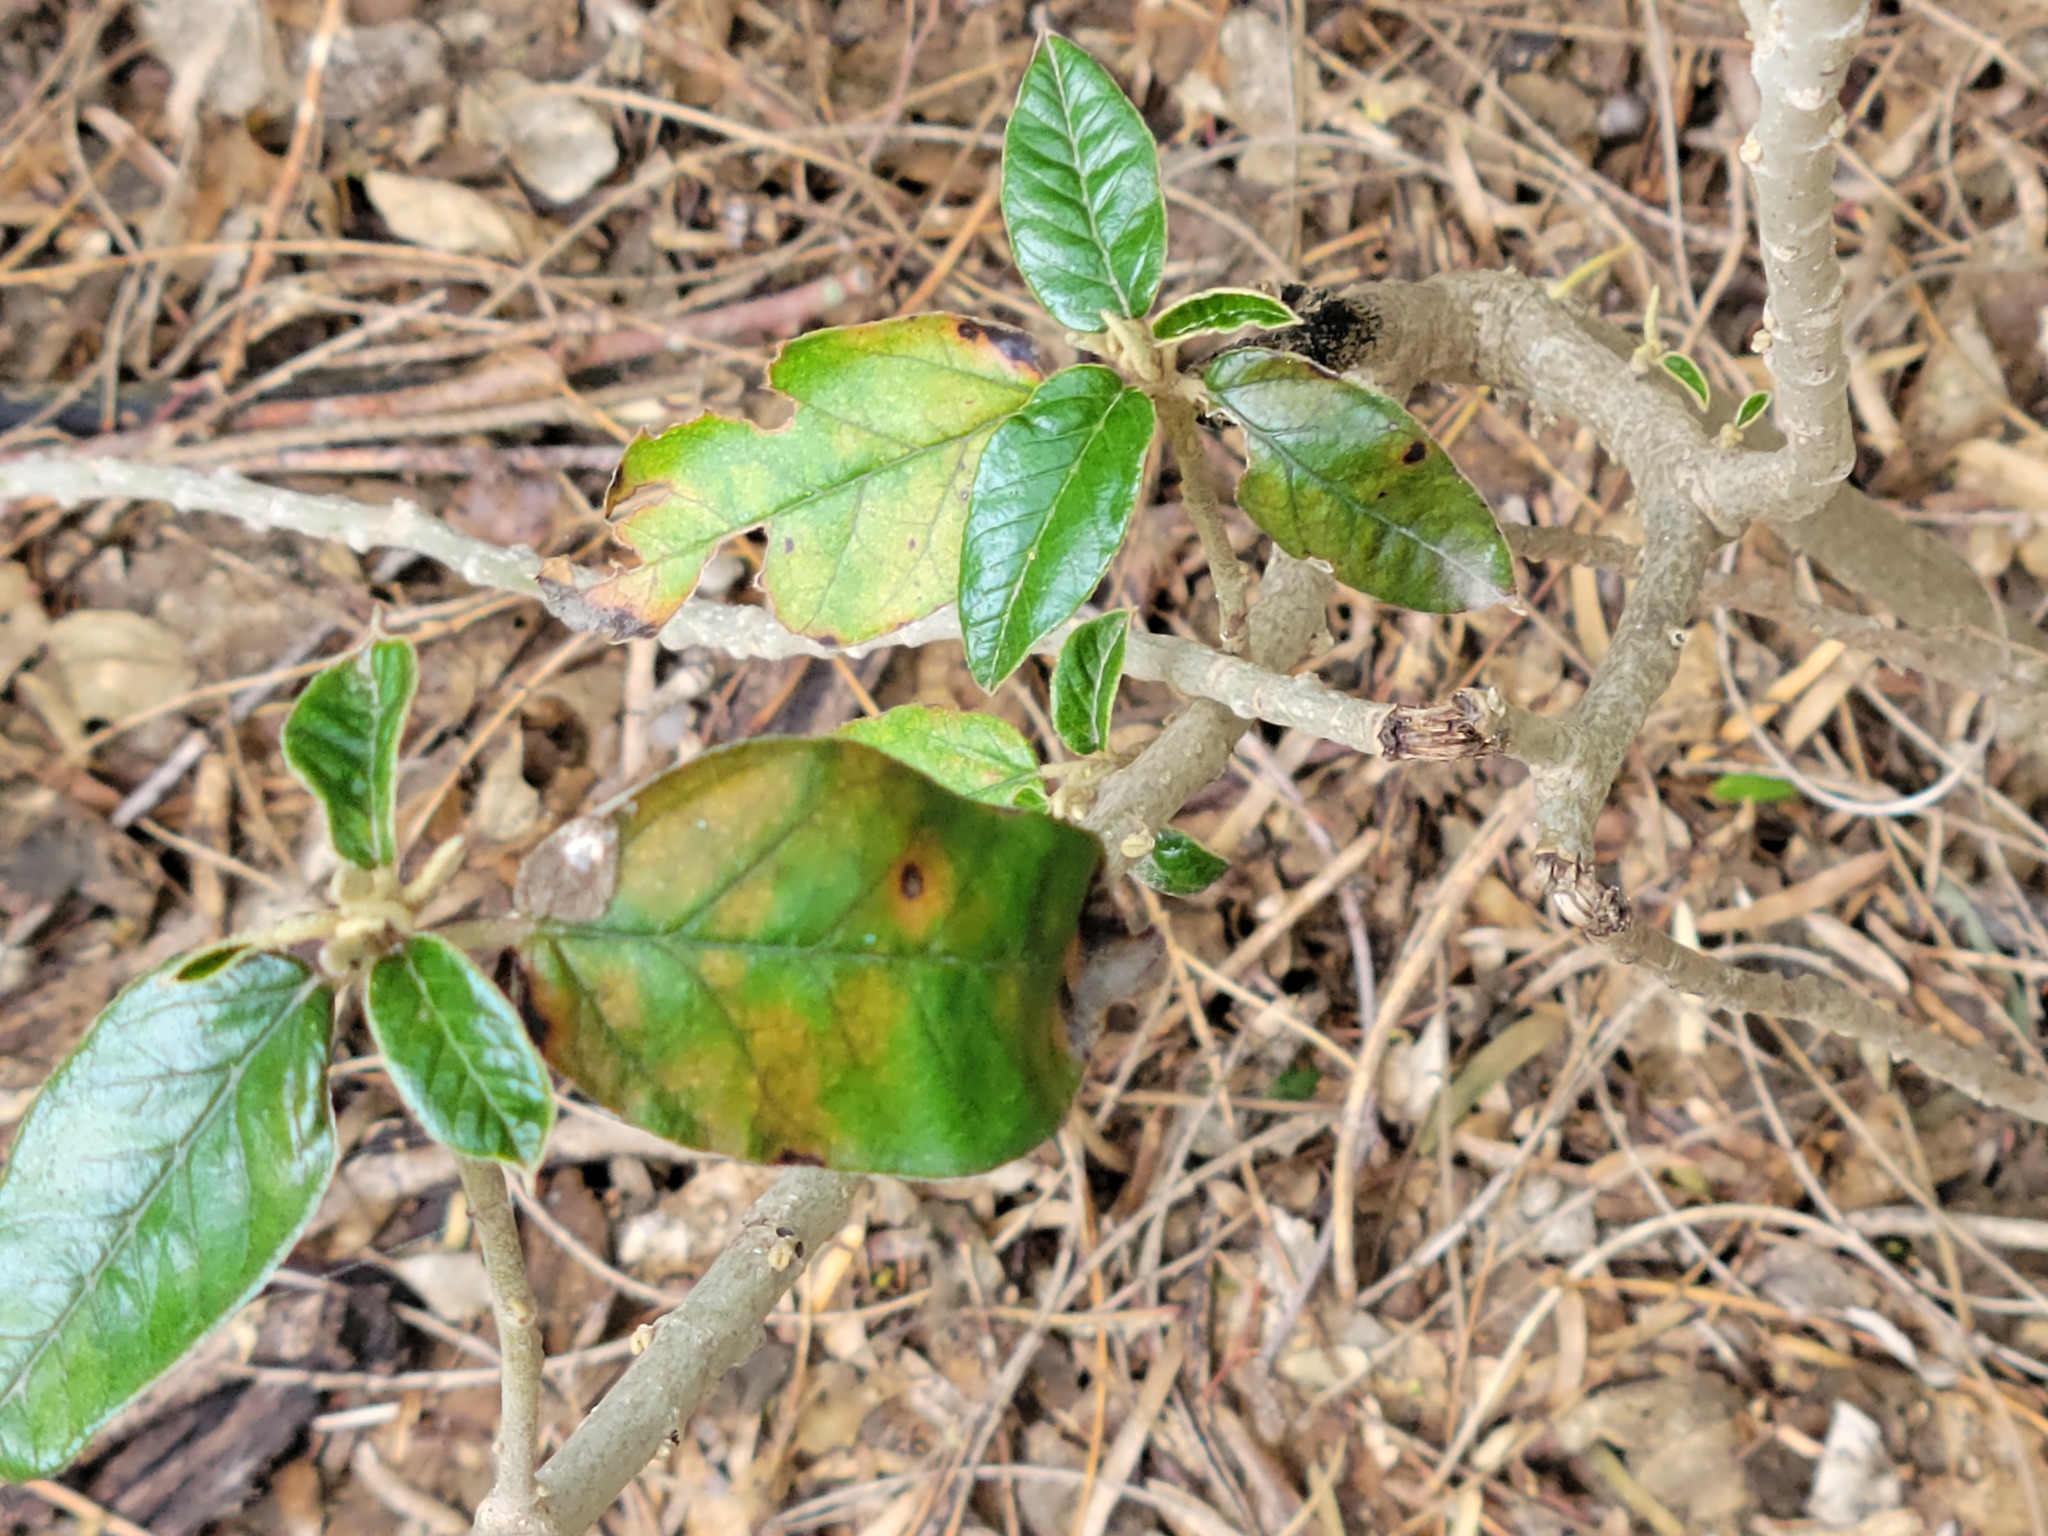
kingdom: Plantae
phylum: Tracheophyta
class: Magnoliopsida
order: Malpighiales
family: Euphorbiaceae
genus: Croton
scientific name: Croton cortesianus
